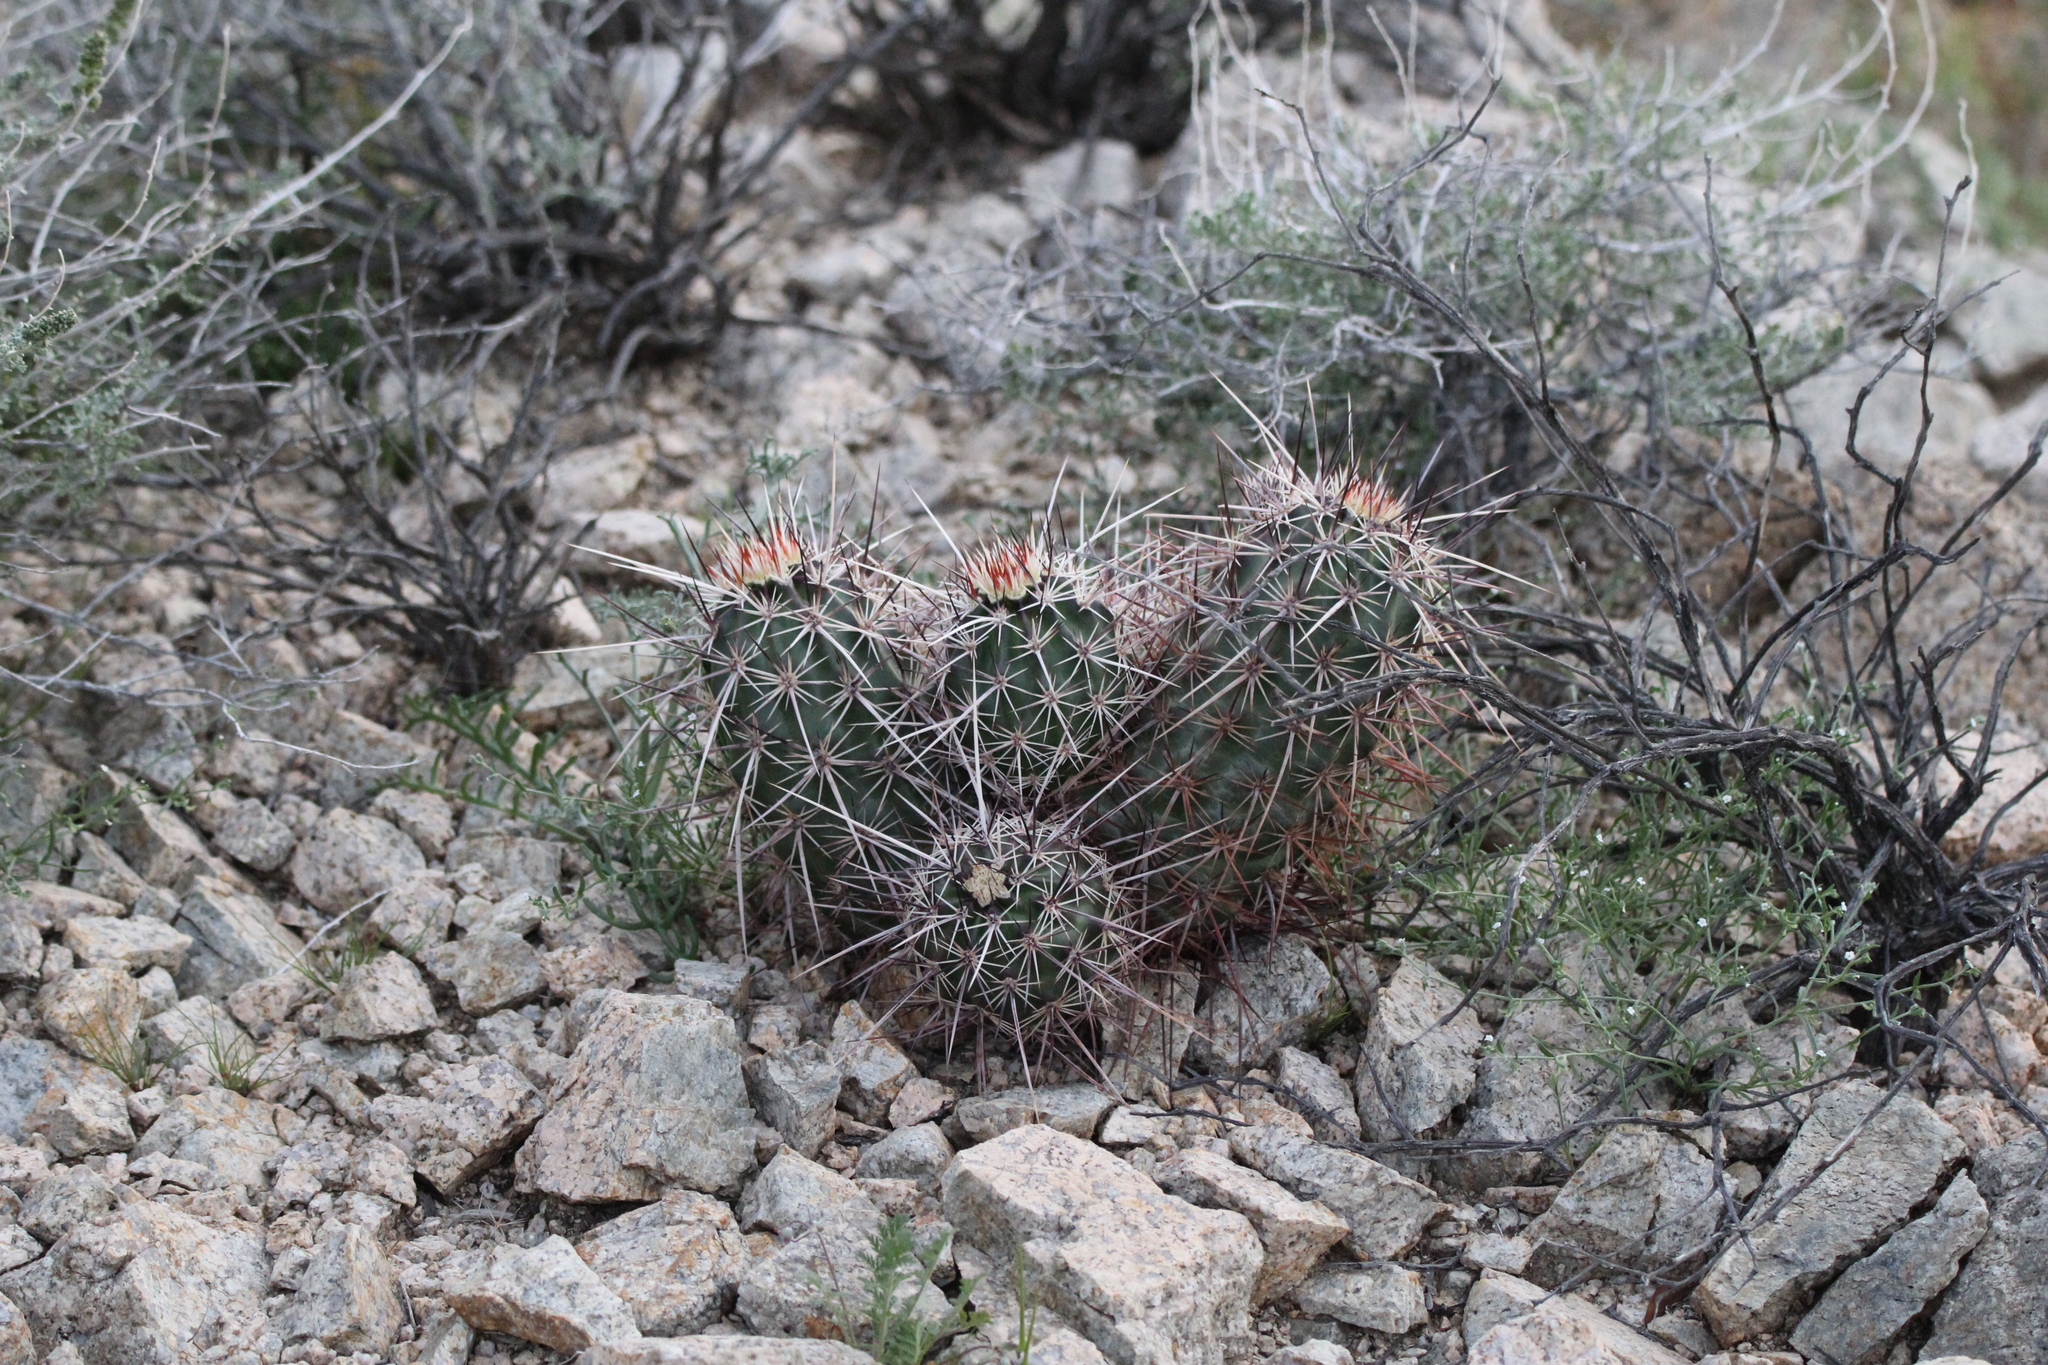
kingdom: Plantae
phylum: Tracheophyta
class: Magnoliopsida
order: Caryophyllales
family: Cactaceae
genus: Echinocereus
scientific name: Echinocereus engelmannii
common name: Engelmann's hedgehog cactus
